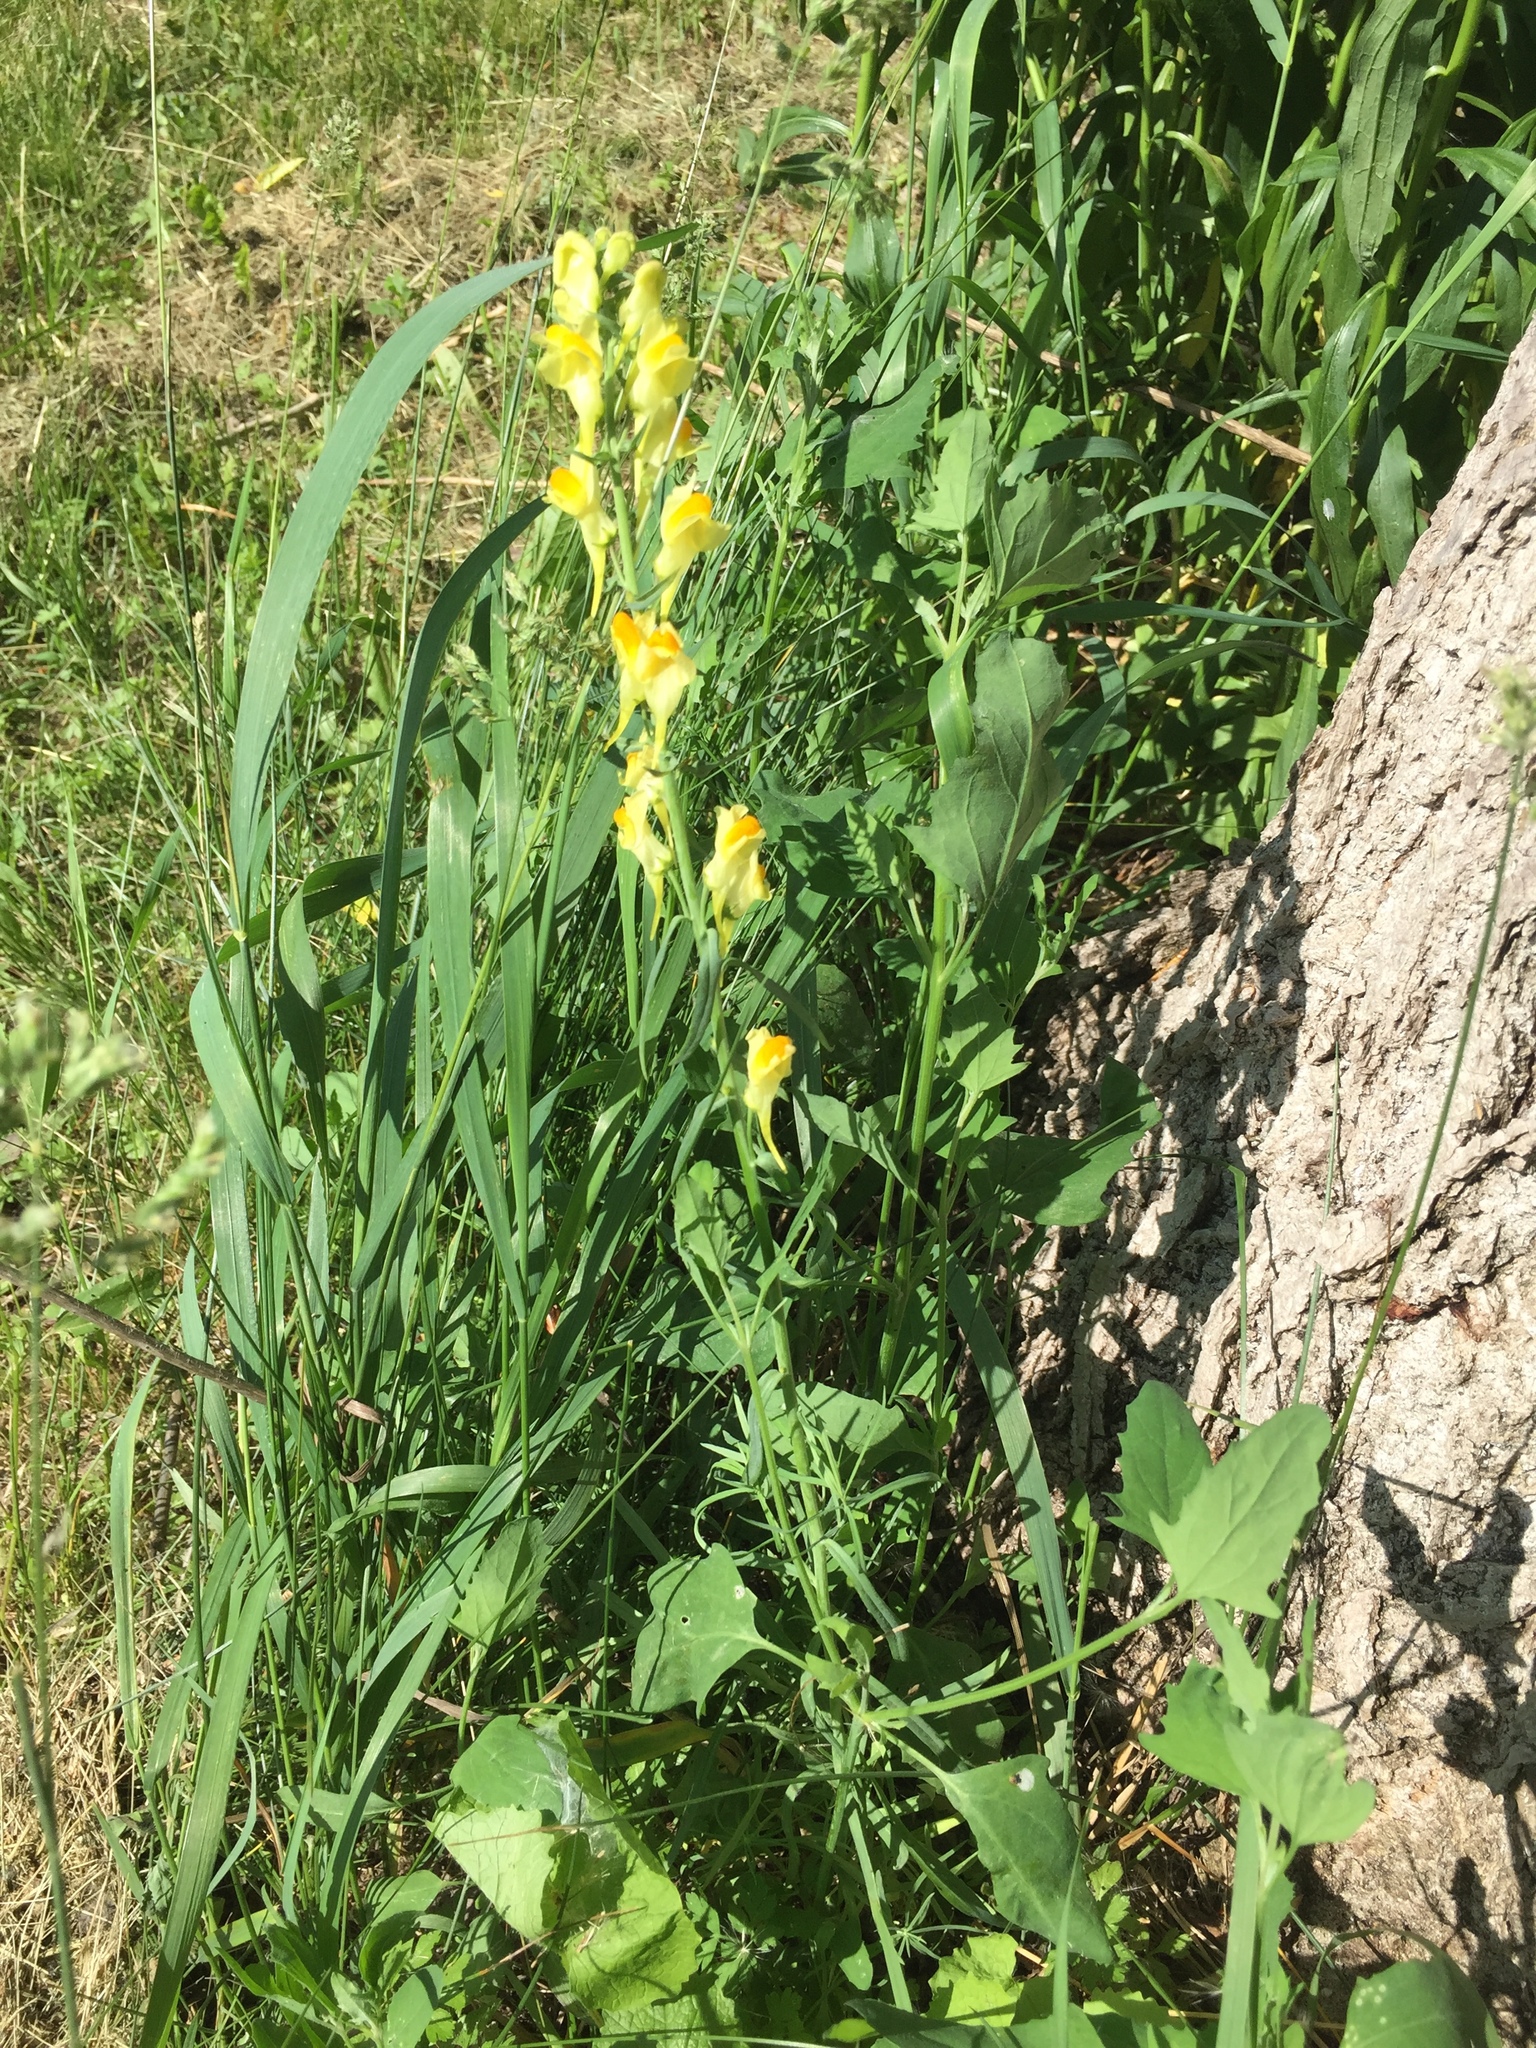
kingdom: Plantae
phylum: Tracheophyta
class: Magnoliopsida
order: Lamiales
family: Plantaginaceae
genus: Linaria
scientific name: Linaria vulgaris
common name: Butter and eggs
